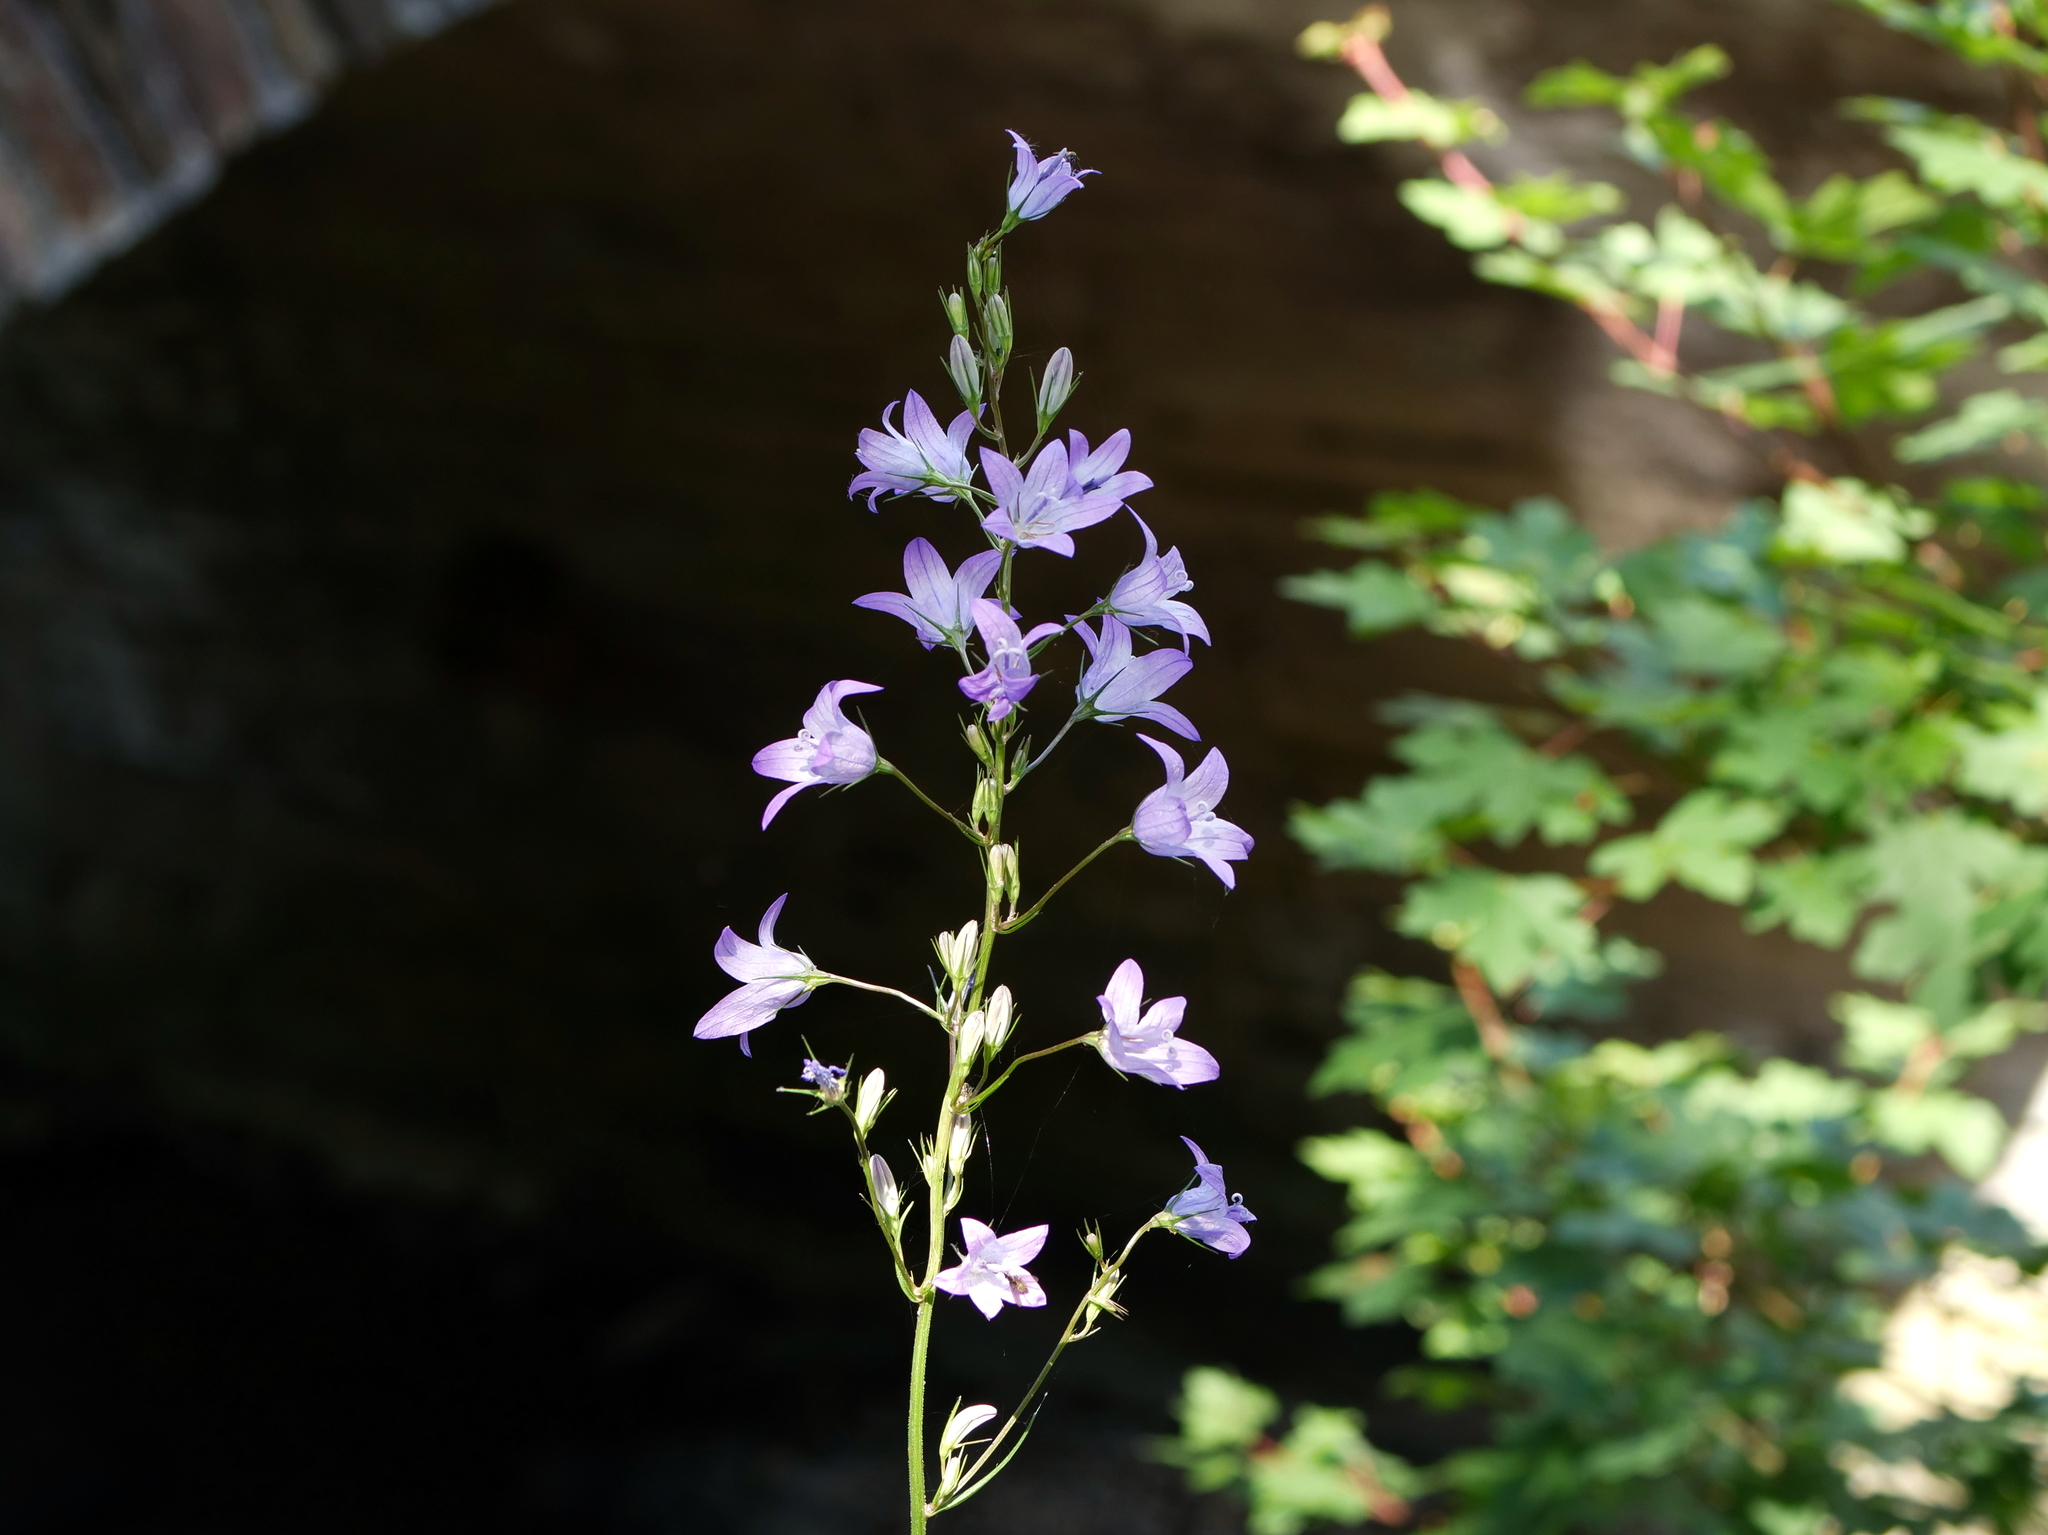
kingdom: Plantae
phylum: Tracheophyta
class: Magnoliopsida
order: Asterales
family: Campanulaceae
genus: Campanula
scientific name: Campanula rapunculus
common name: Rampion bellflower
